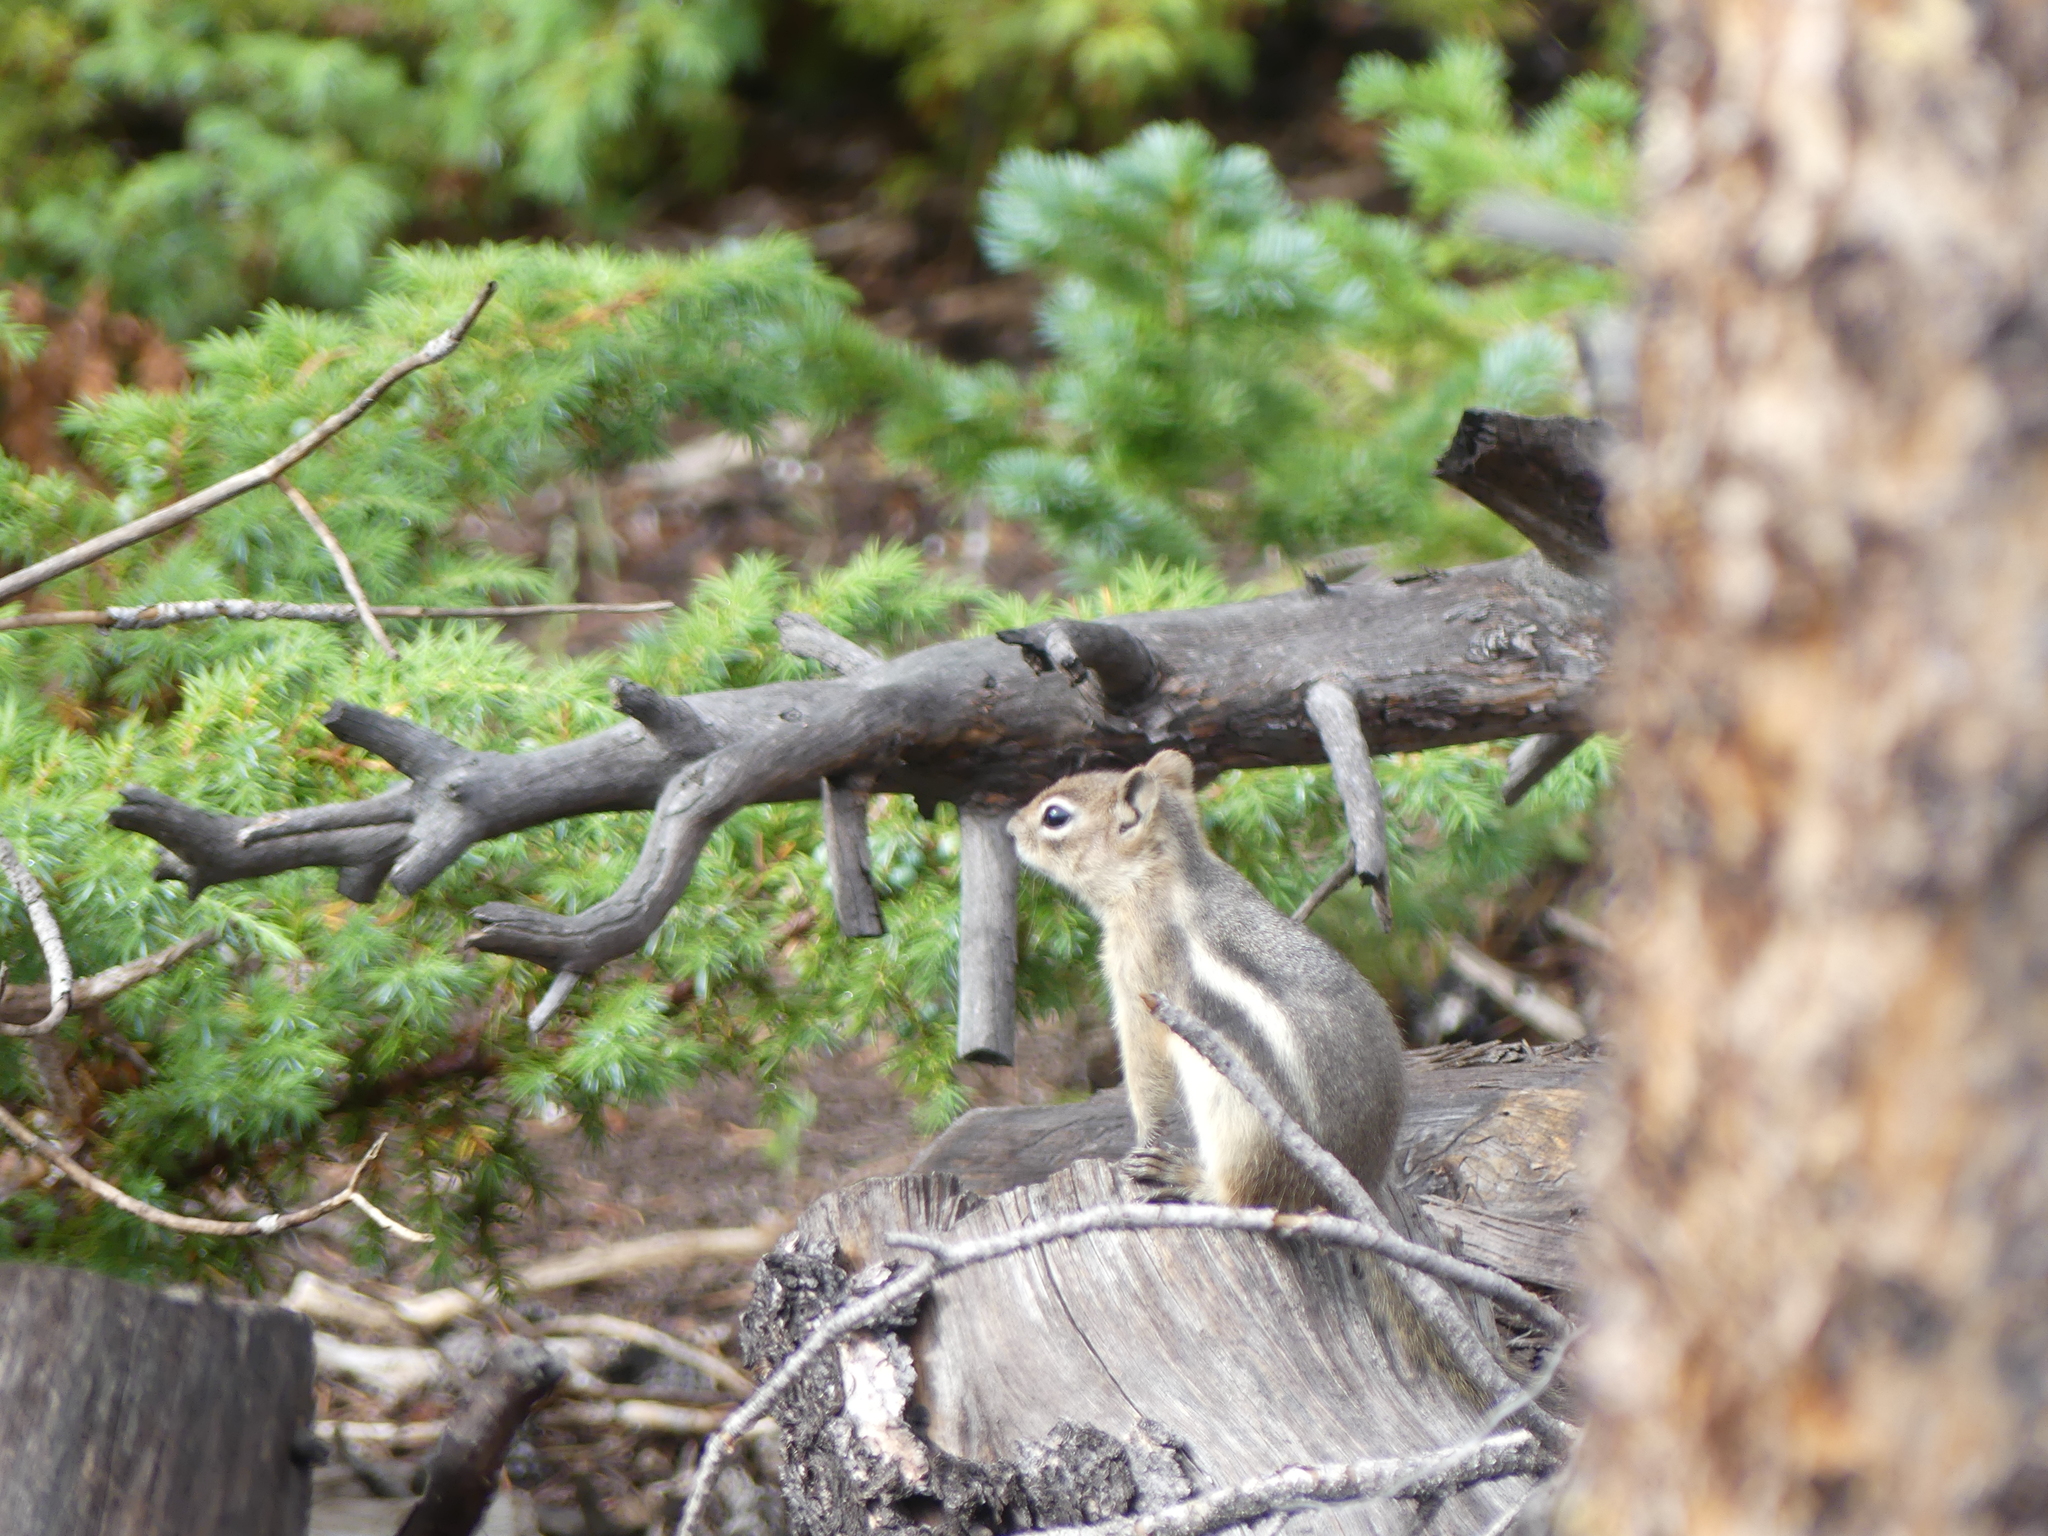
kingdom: Animalia
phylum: Chordata
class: Mammalia
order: Rodentia
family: Sciuridae
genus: Callospermophilus
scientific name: Callospermophilus lateralis
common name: Golden-mantled ground squirrel
